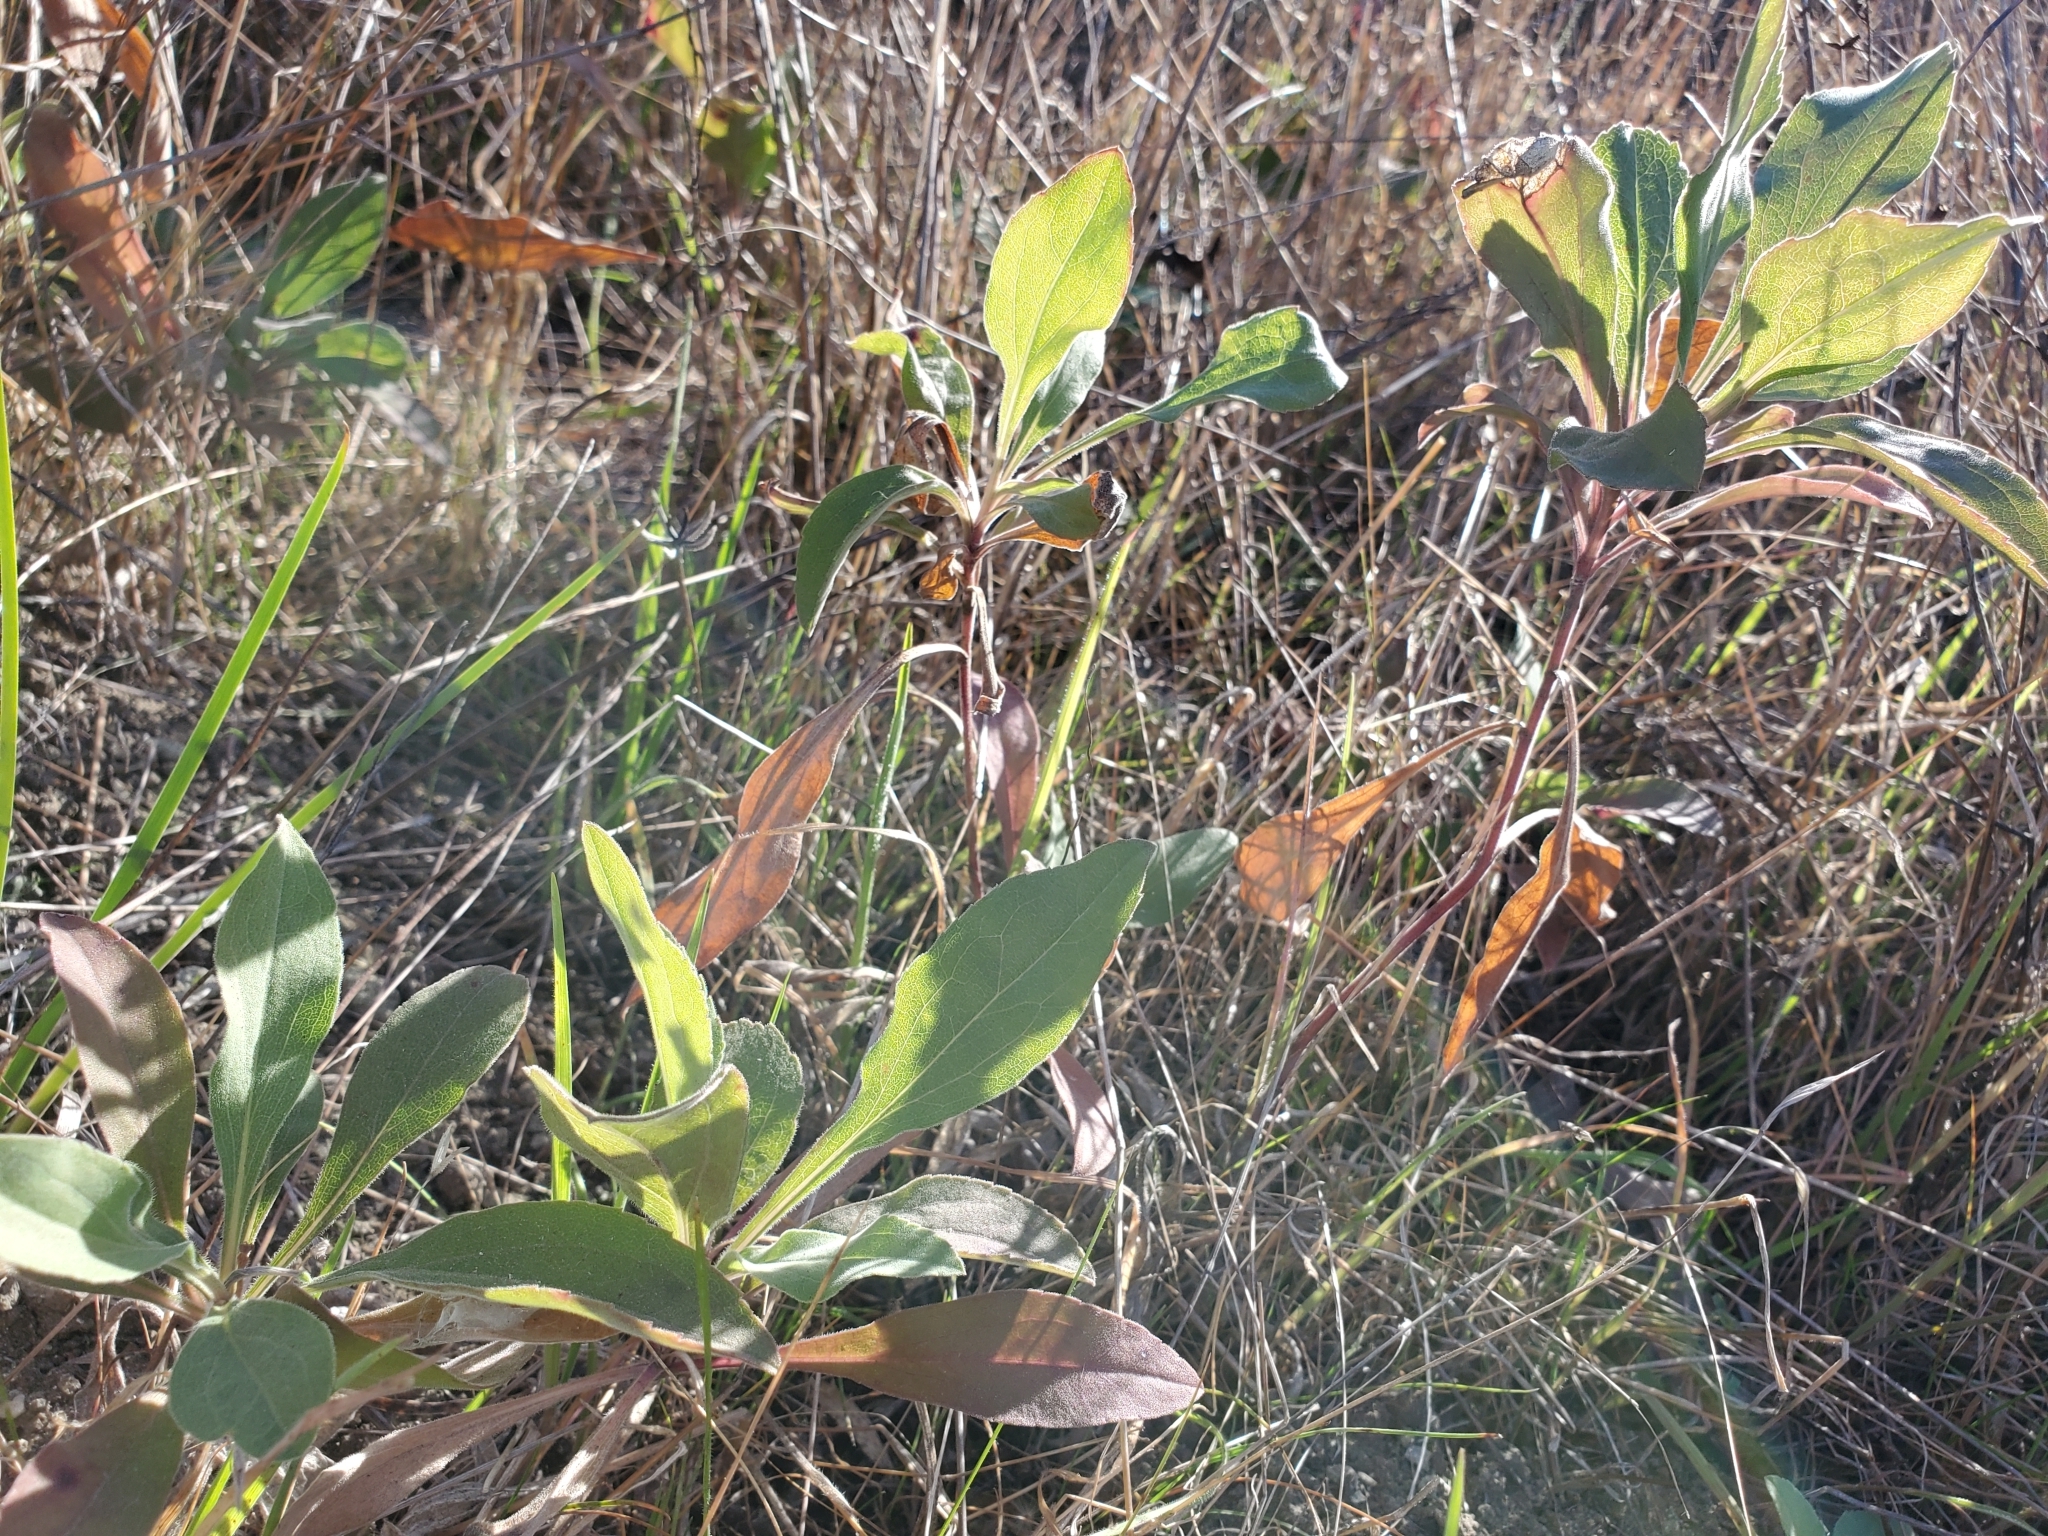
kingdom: Plantae
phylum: Tracheophyta
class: Magnoliopsida
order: Asterales
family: Asteraceae
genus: Solidago
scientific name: Solidago californica
